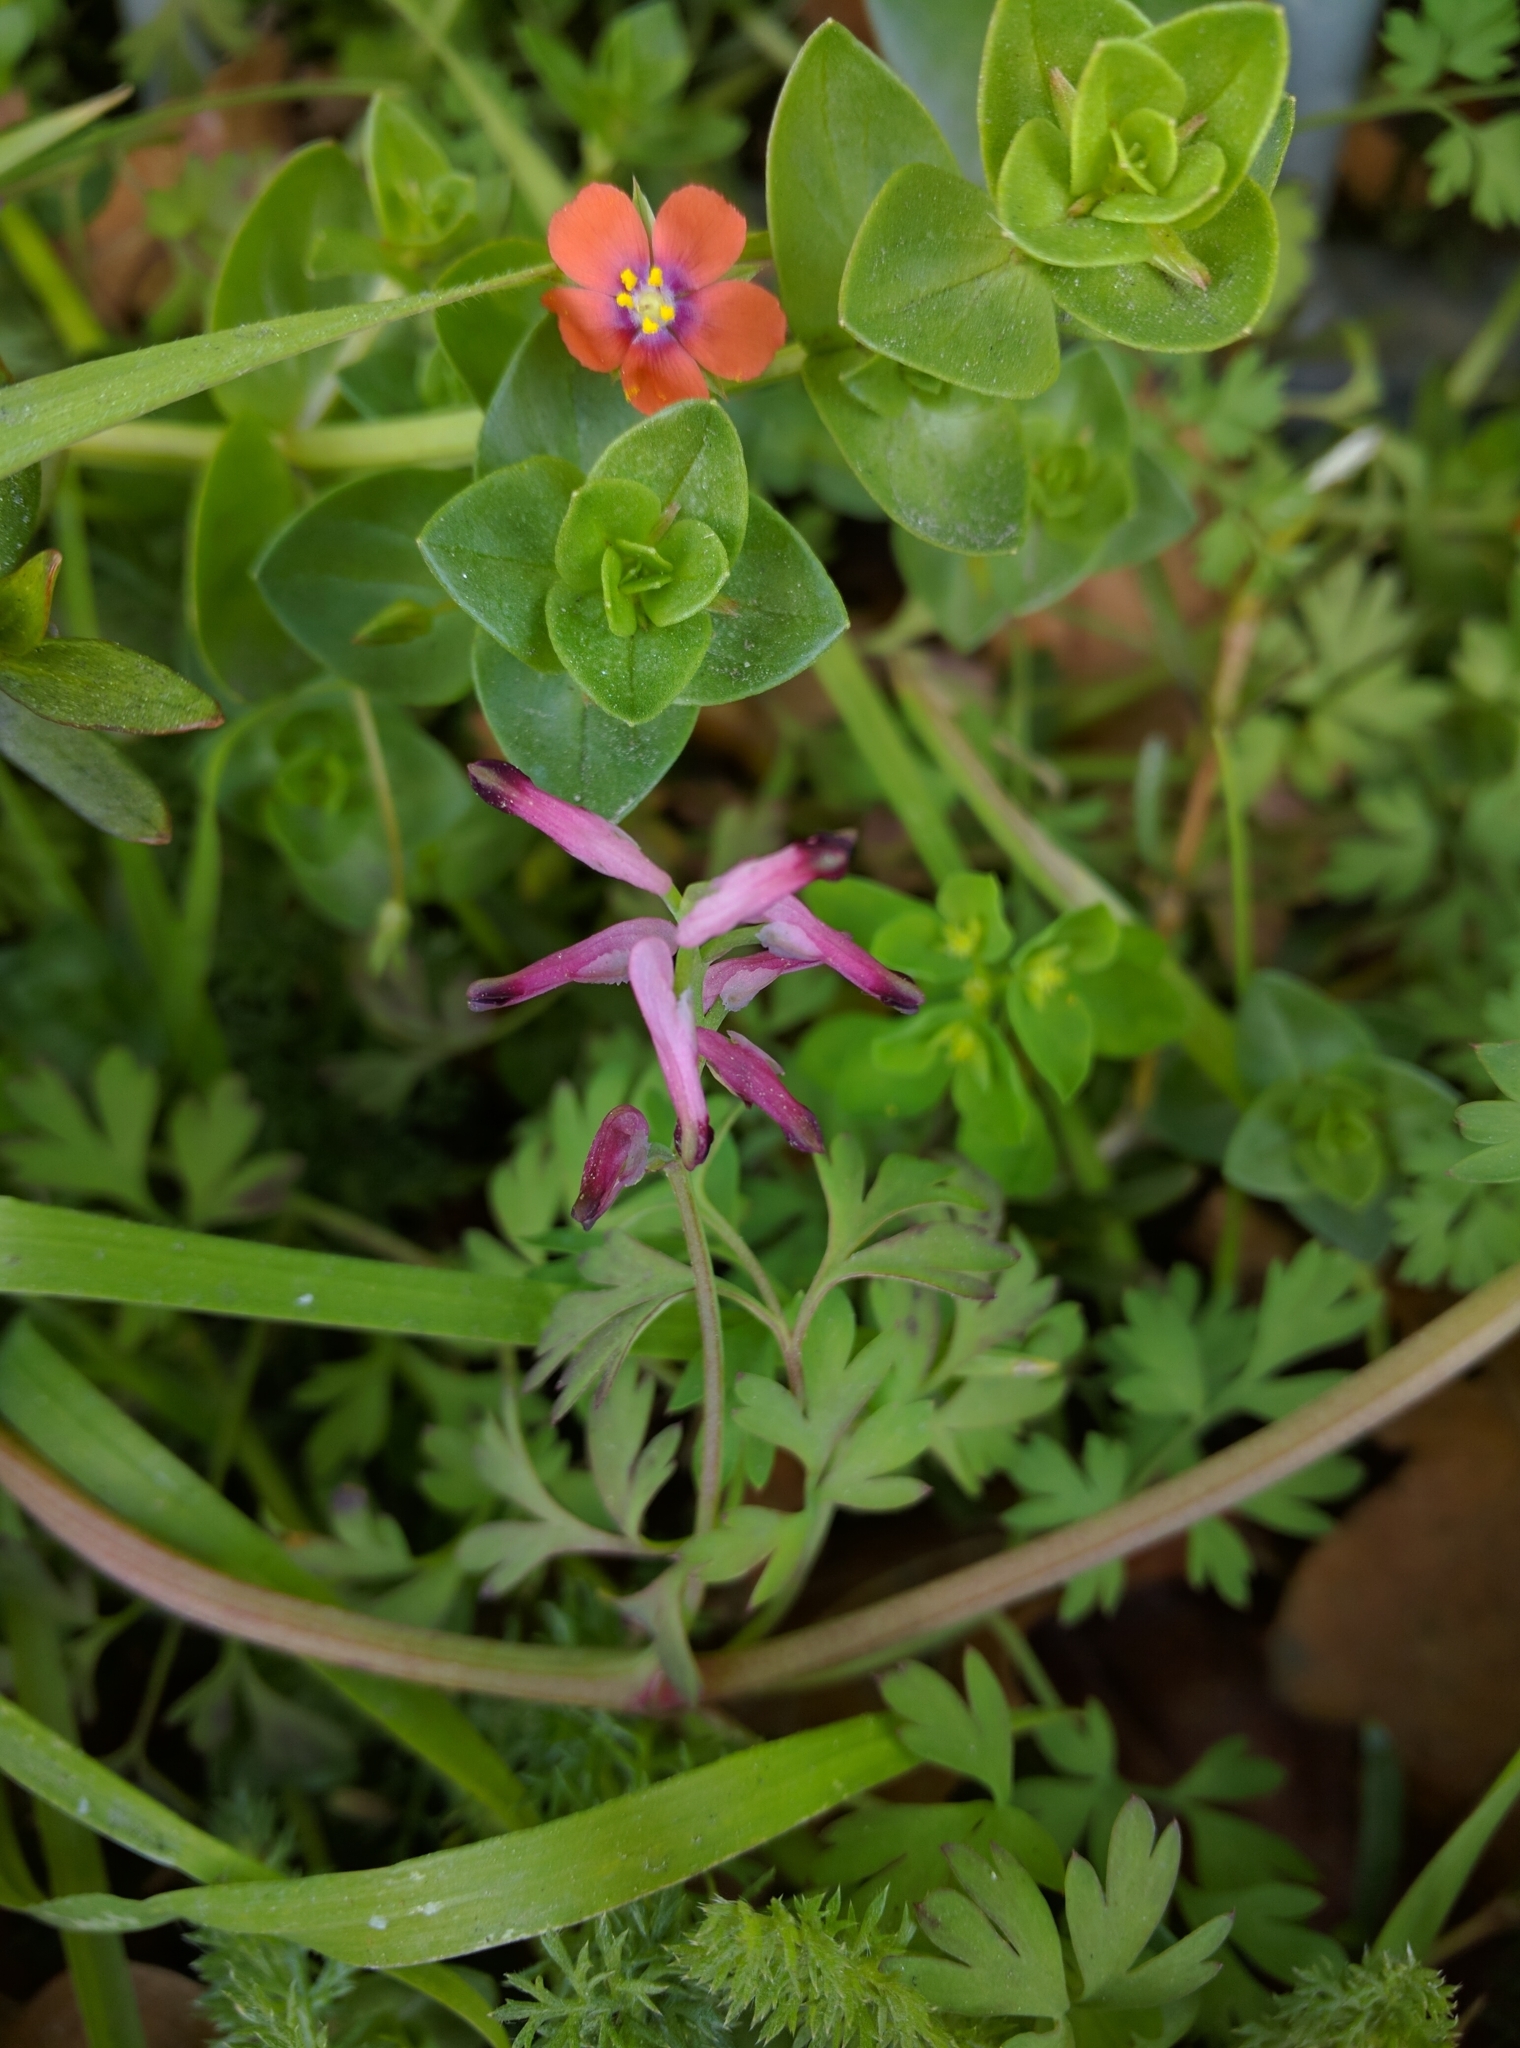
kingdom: Plantae
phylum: Tracheophyta
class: Magnoliopsida
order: Ranunculales
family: Papaveraceae
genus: Fumaria
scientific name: Fumaria muralis
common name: Common ramping-fumitory
